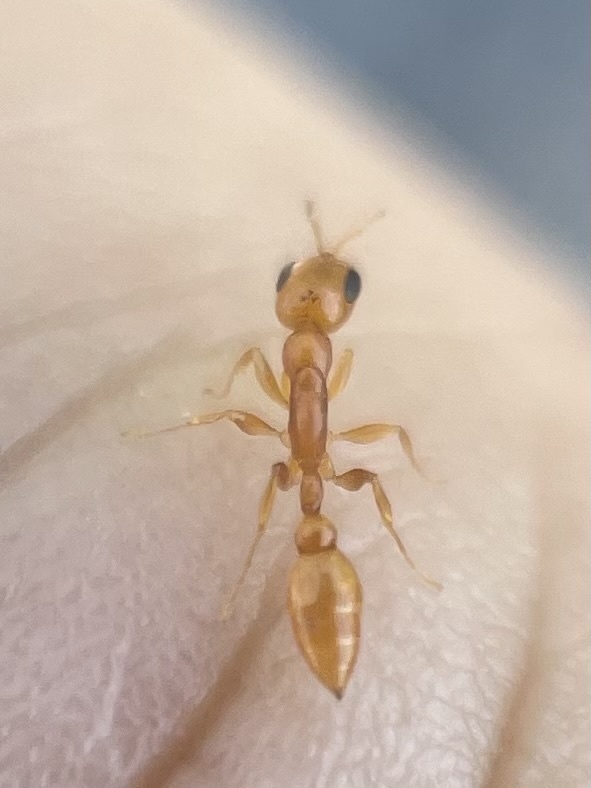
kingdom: Animalia
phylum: Arthropoda
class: Insecta
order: Hymenoptera
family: Formicidae
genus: Pseudomyrmex
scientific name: Pseudomyrmex pallidus
